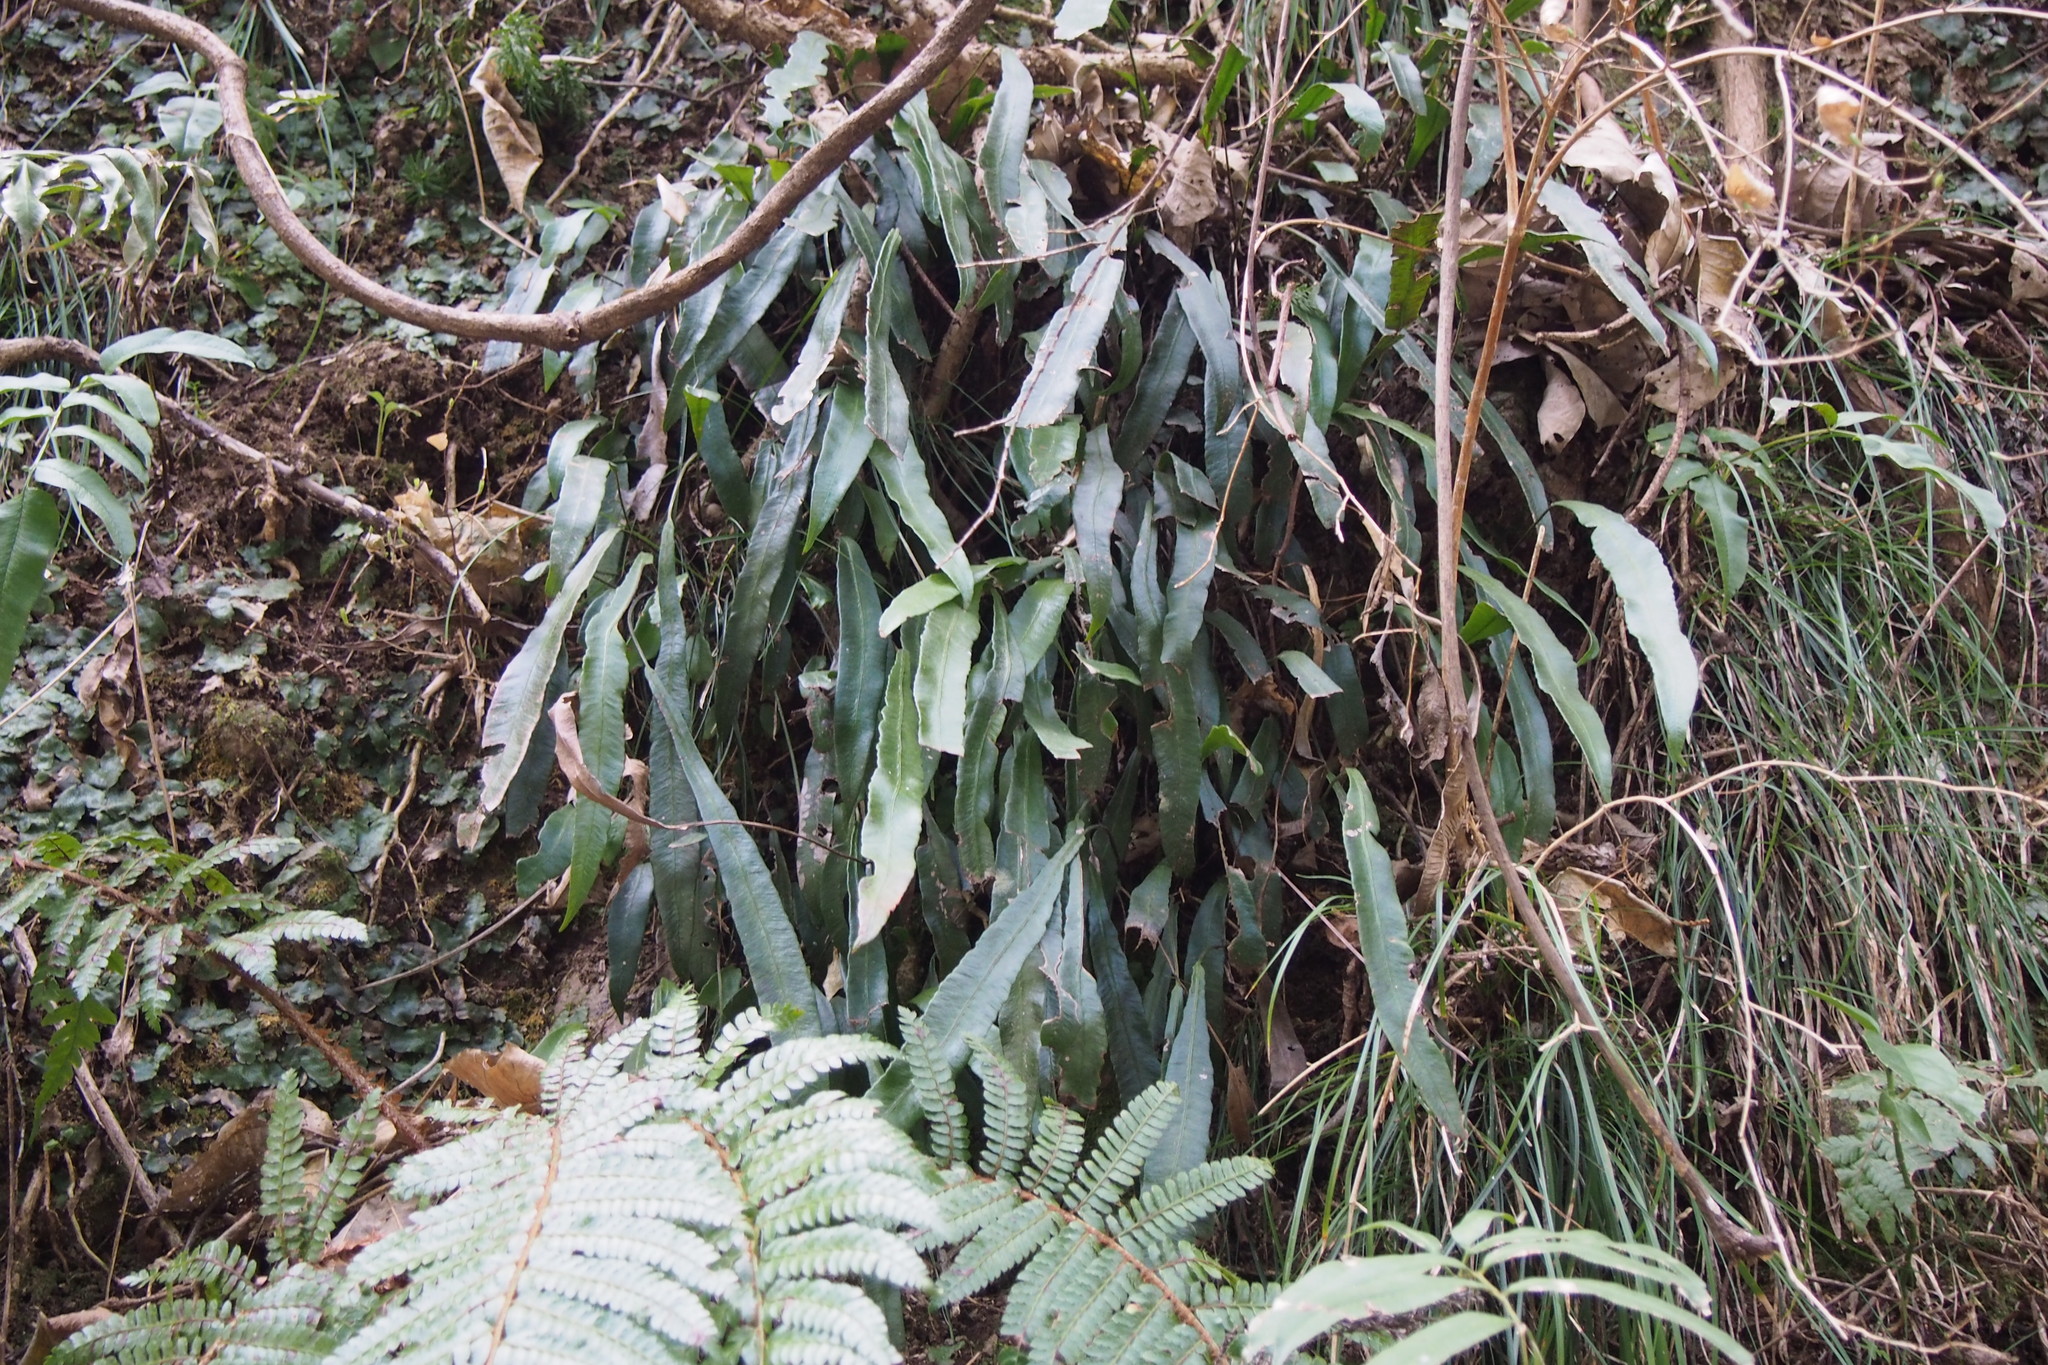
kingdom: Plantae
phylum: Tracheophyta
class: Polypodiopsida
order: Polypodiales
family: Athyriaceae
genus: Deparia
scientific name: Deparia lancea
